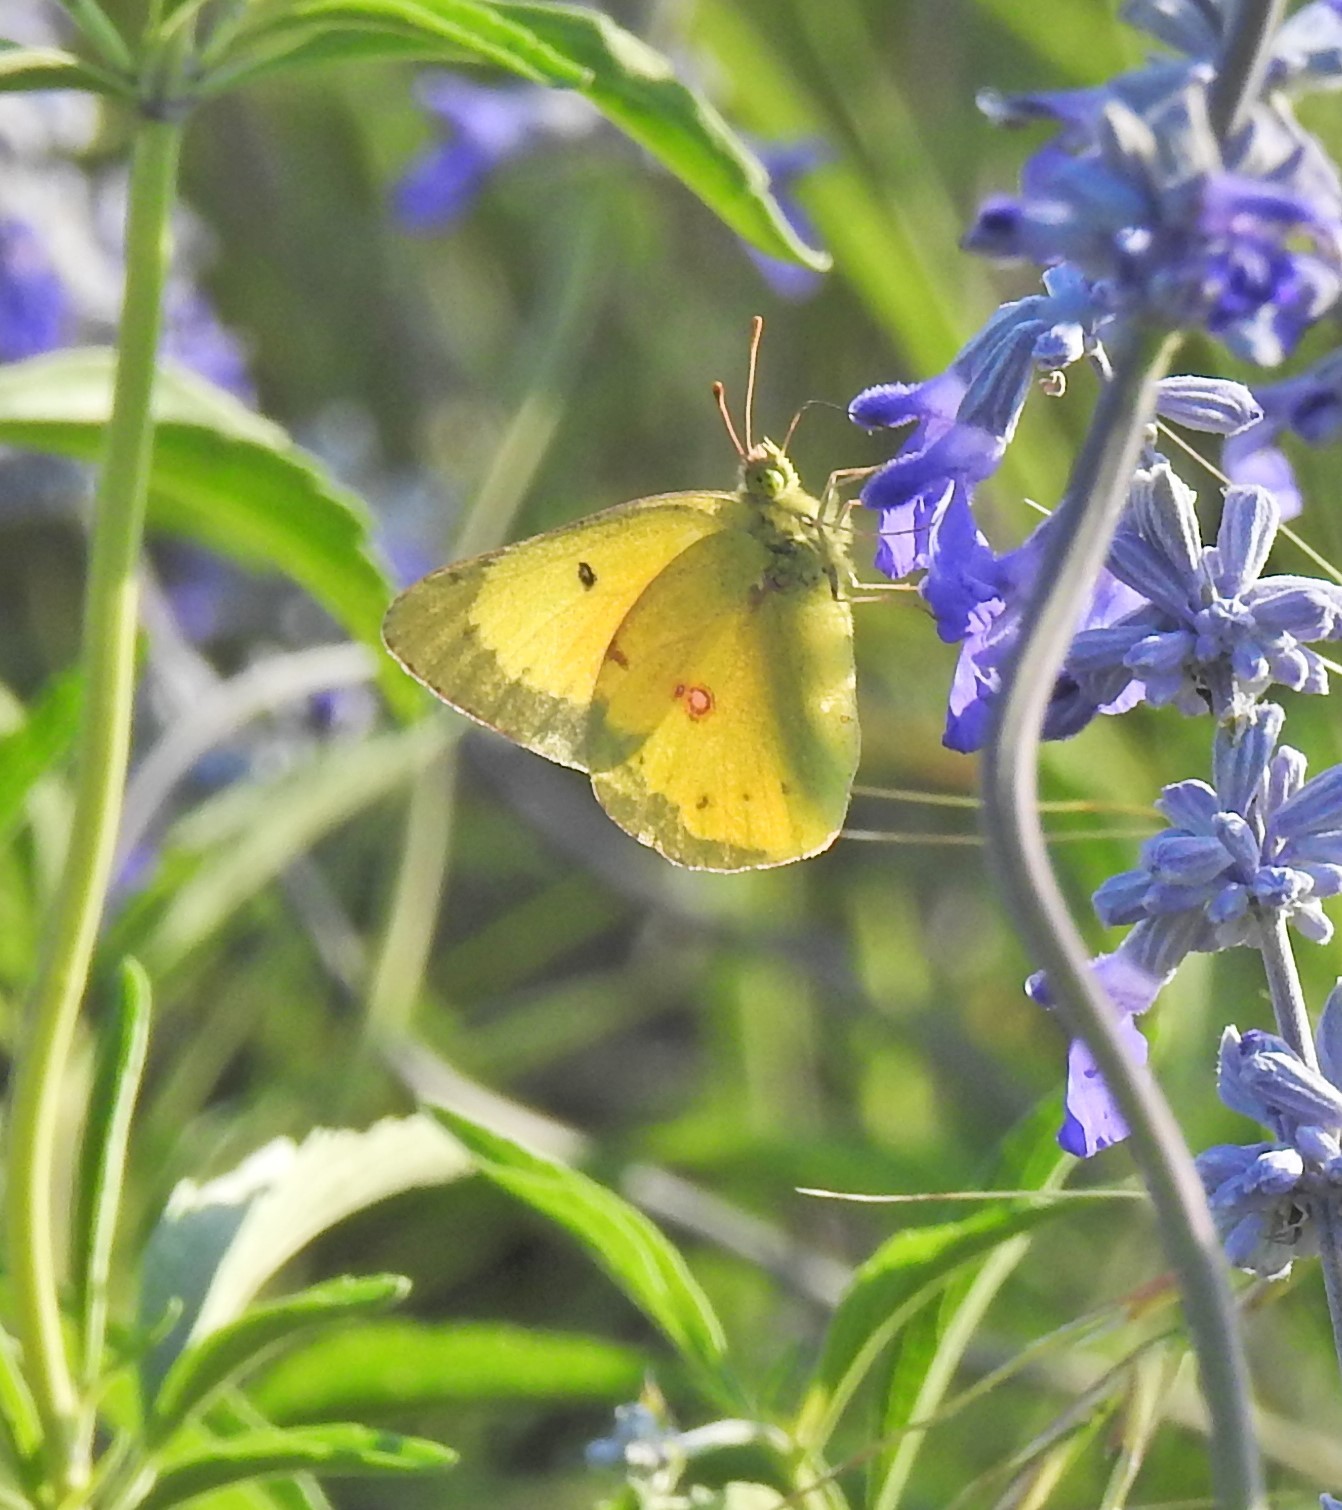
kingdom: Animalia
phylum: Arthropoda
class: Insecta
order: Lepidoptera
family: Pieridae
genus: Colias
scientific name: Colias eurytheme
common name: Alfalfa butterfly
